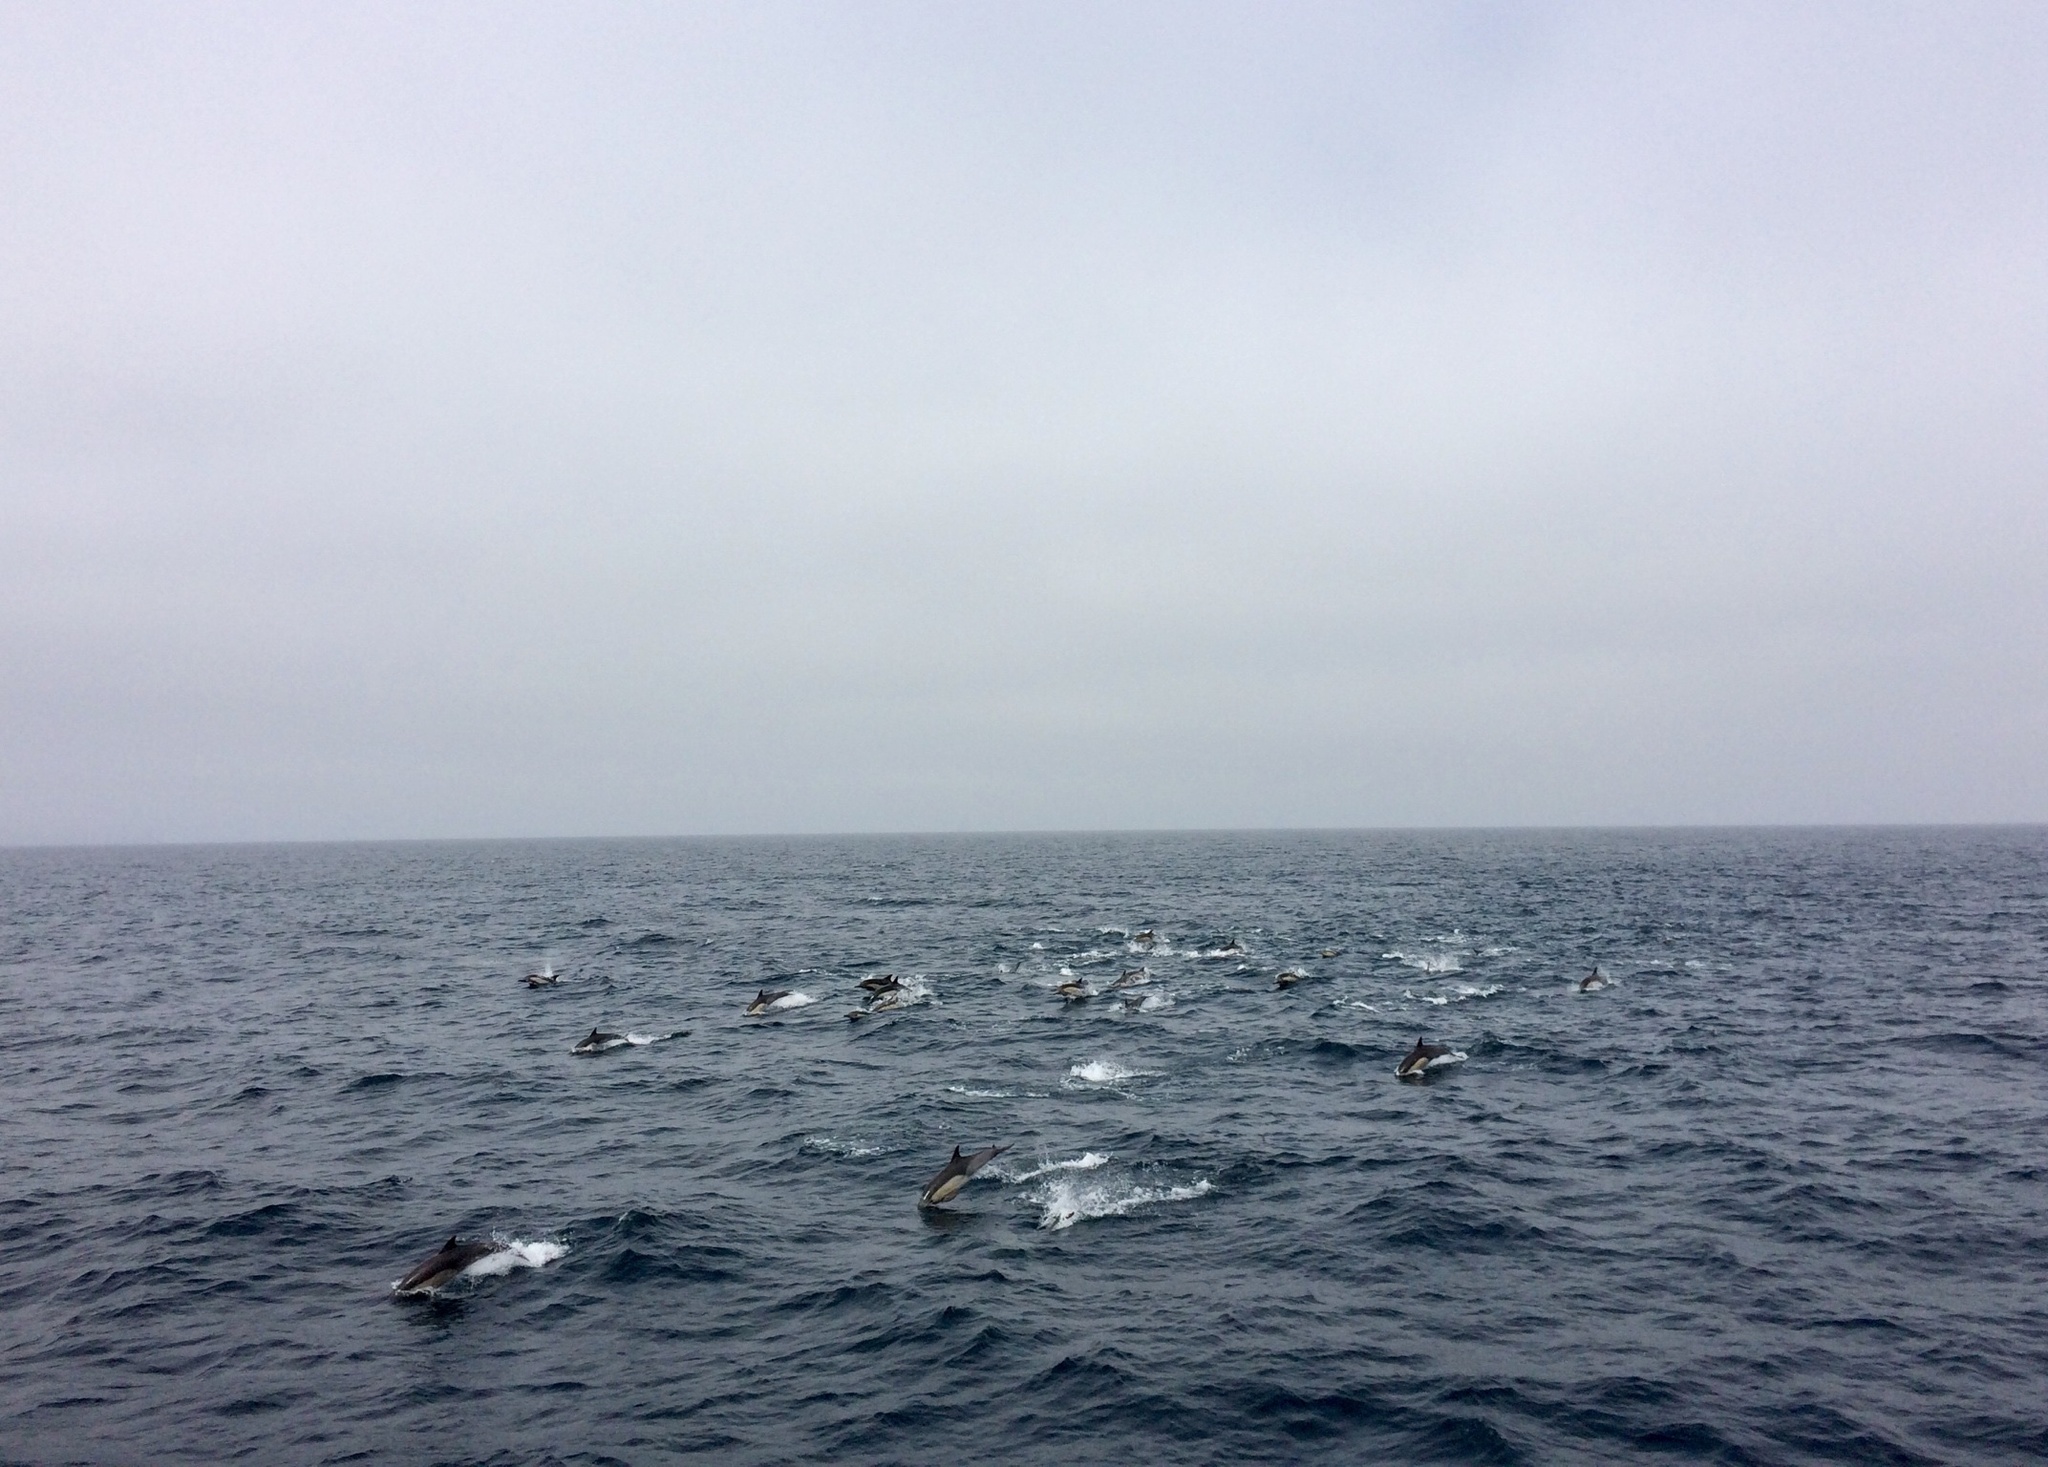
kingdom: Animalia
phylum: Chordata
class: Mammalia
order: Cetacea
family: Delphinidae
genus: Delphinus
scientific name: Delphinus delphis
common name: Common dolphin
